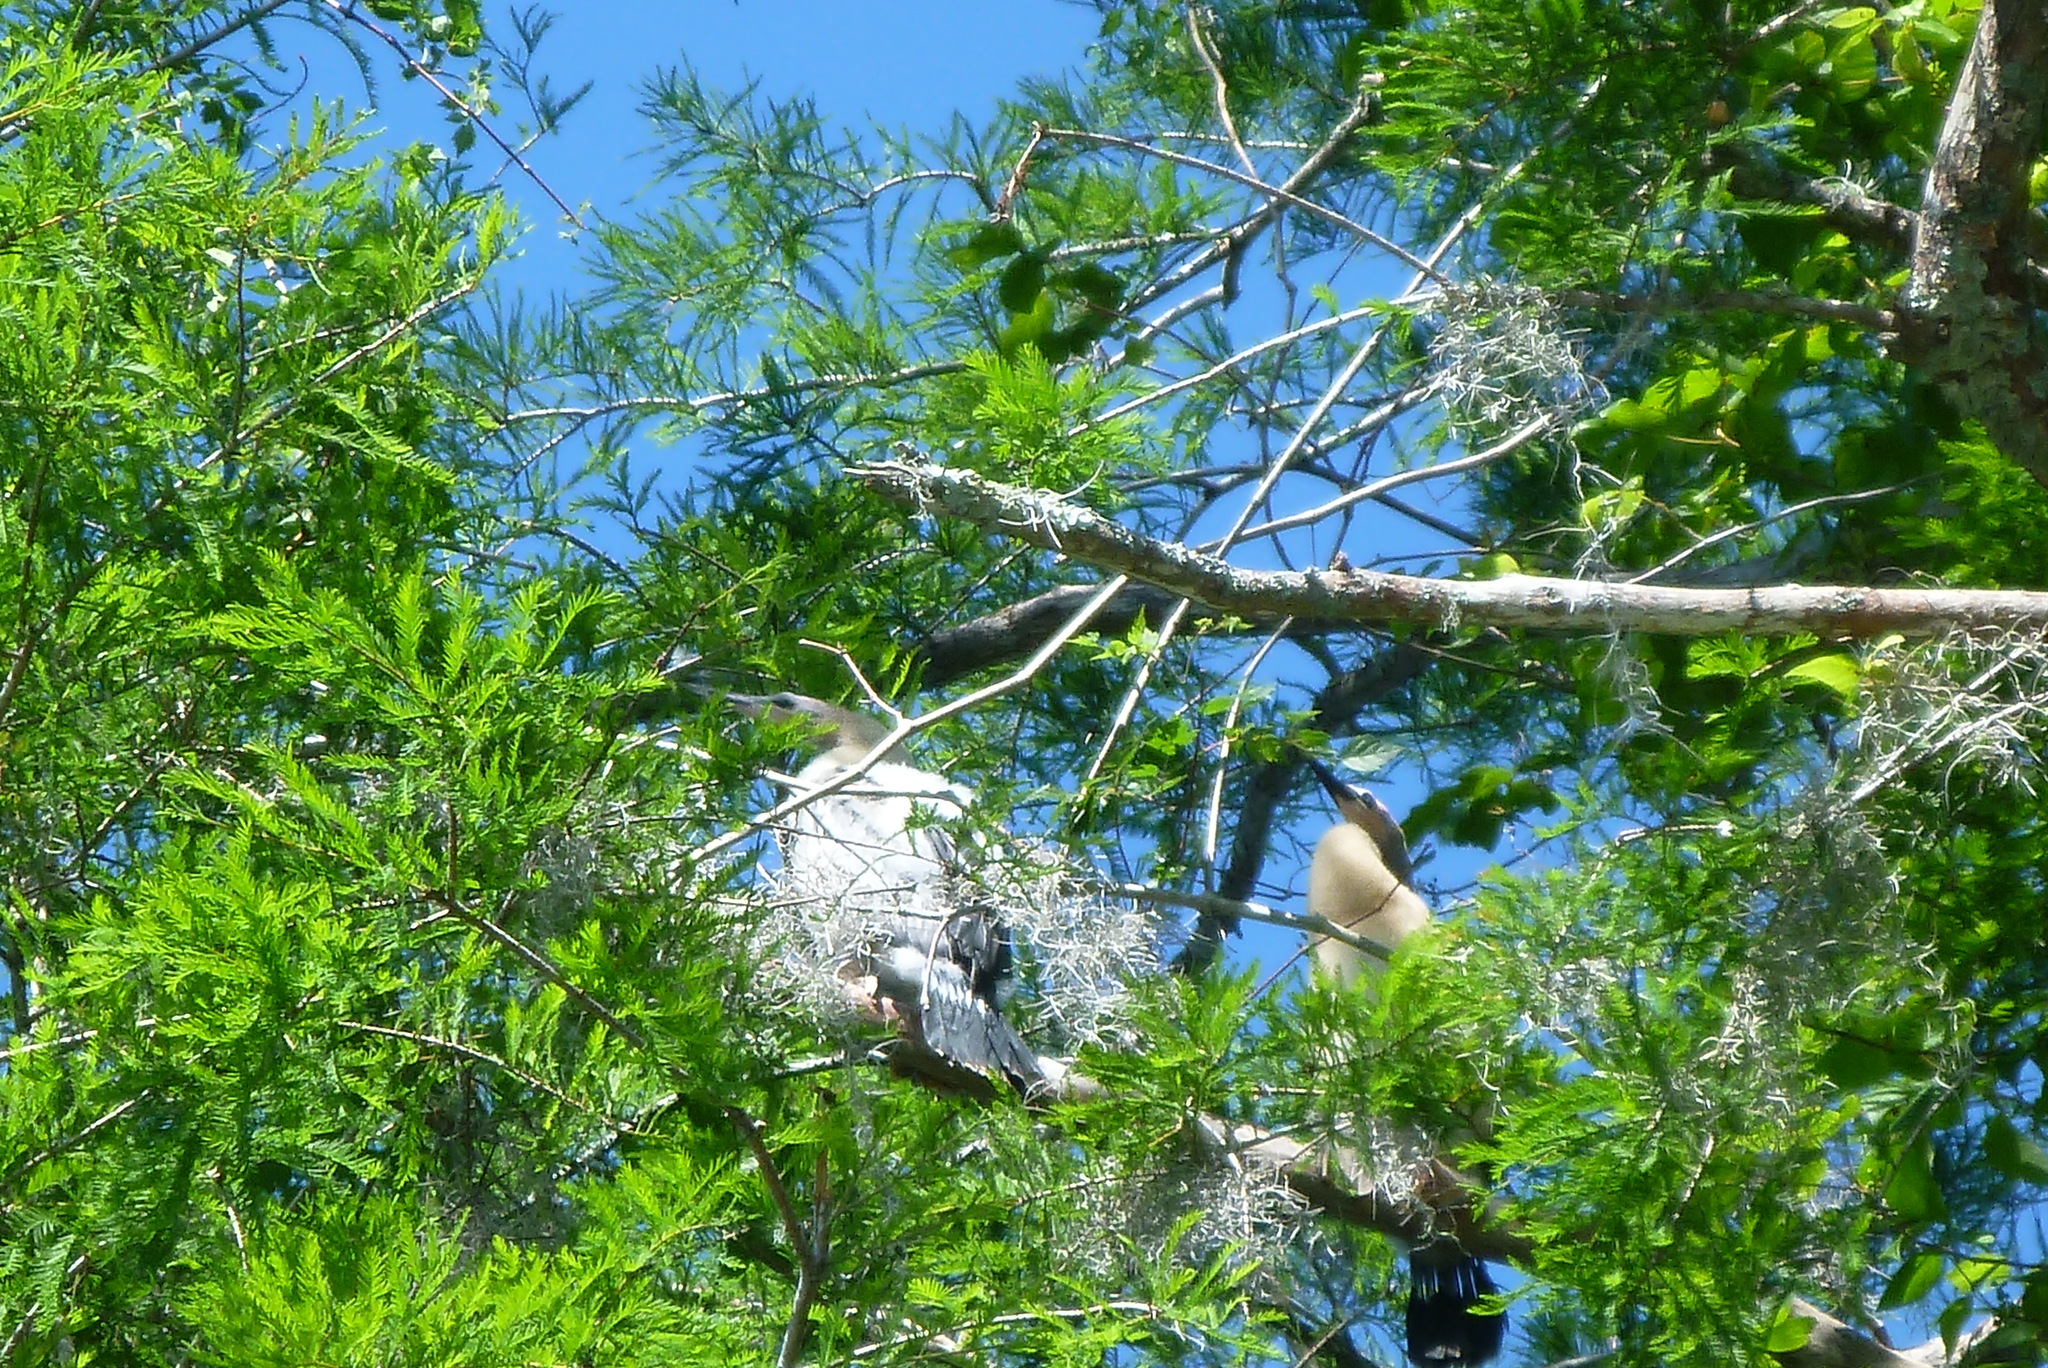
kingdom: Animalia
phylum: Chordata
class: Aves
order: Suliformes
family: Anhingidae
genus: Anhinga
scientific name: Anhinga anhinga
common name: Anhinga
